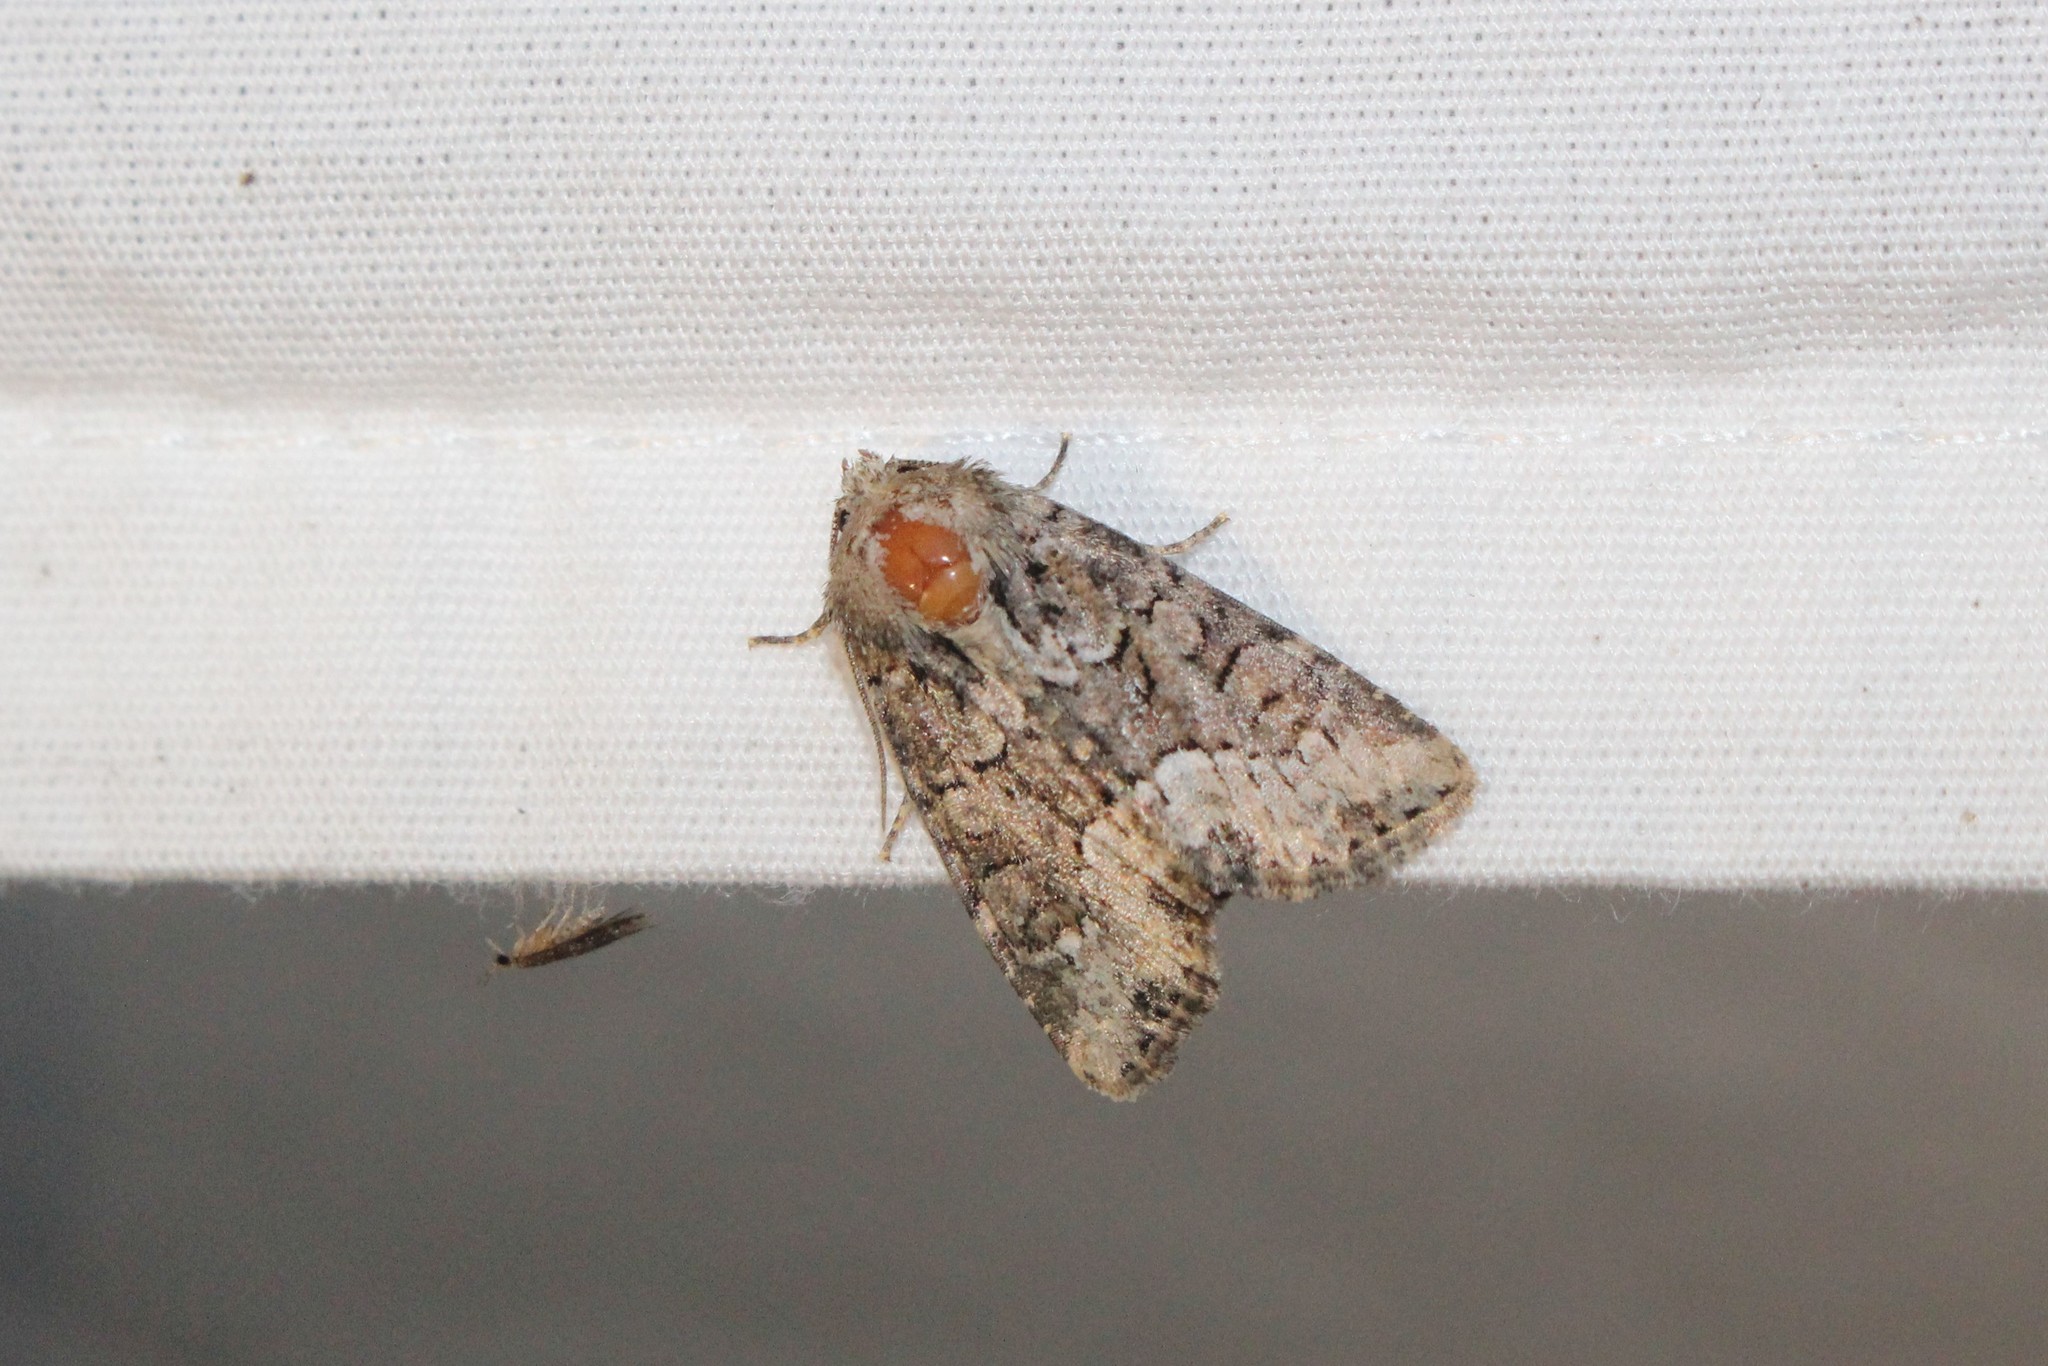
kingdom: Animalia
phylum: Arthropoda
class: Insecta
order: Lepidoptera
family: Noctuidae
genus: Oligia
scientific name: Oligia strigilis
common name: Marbled minor
